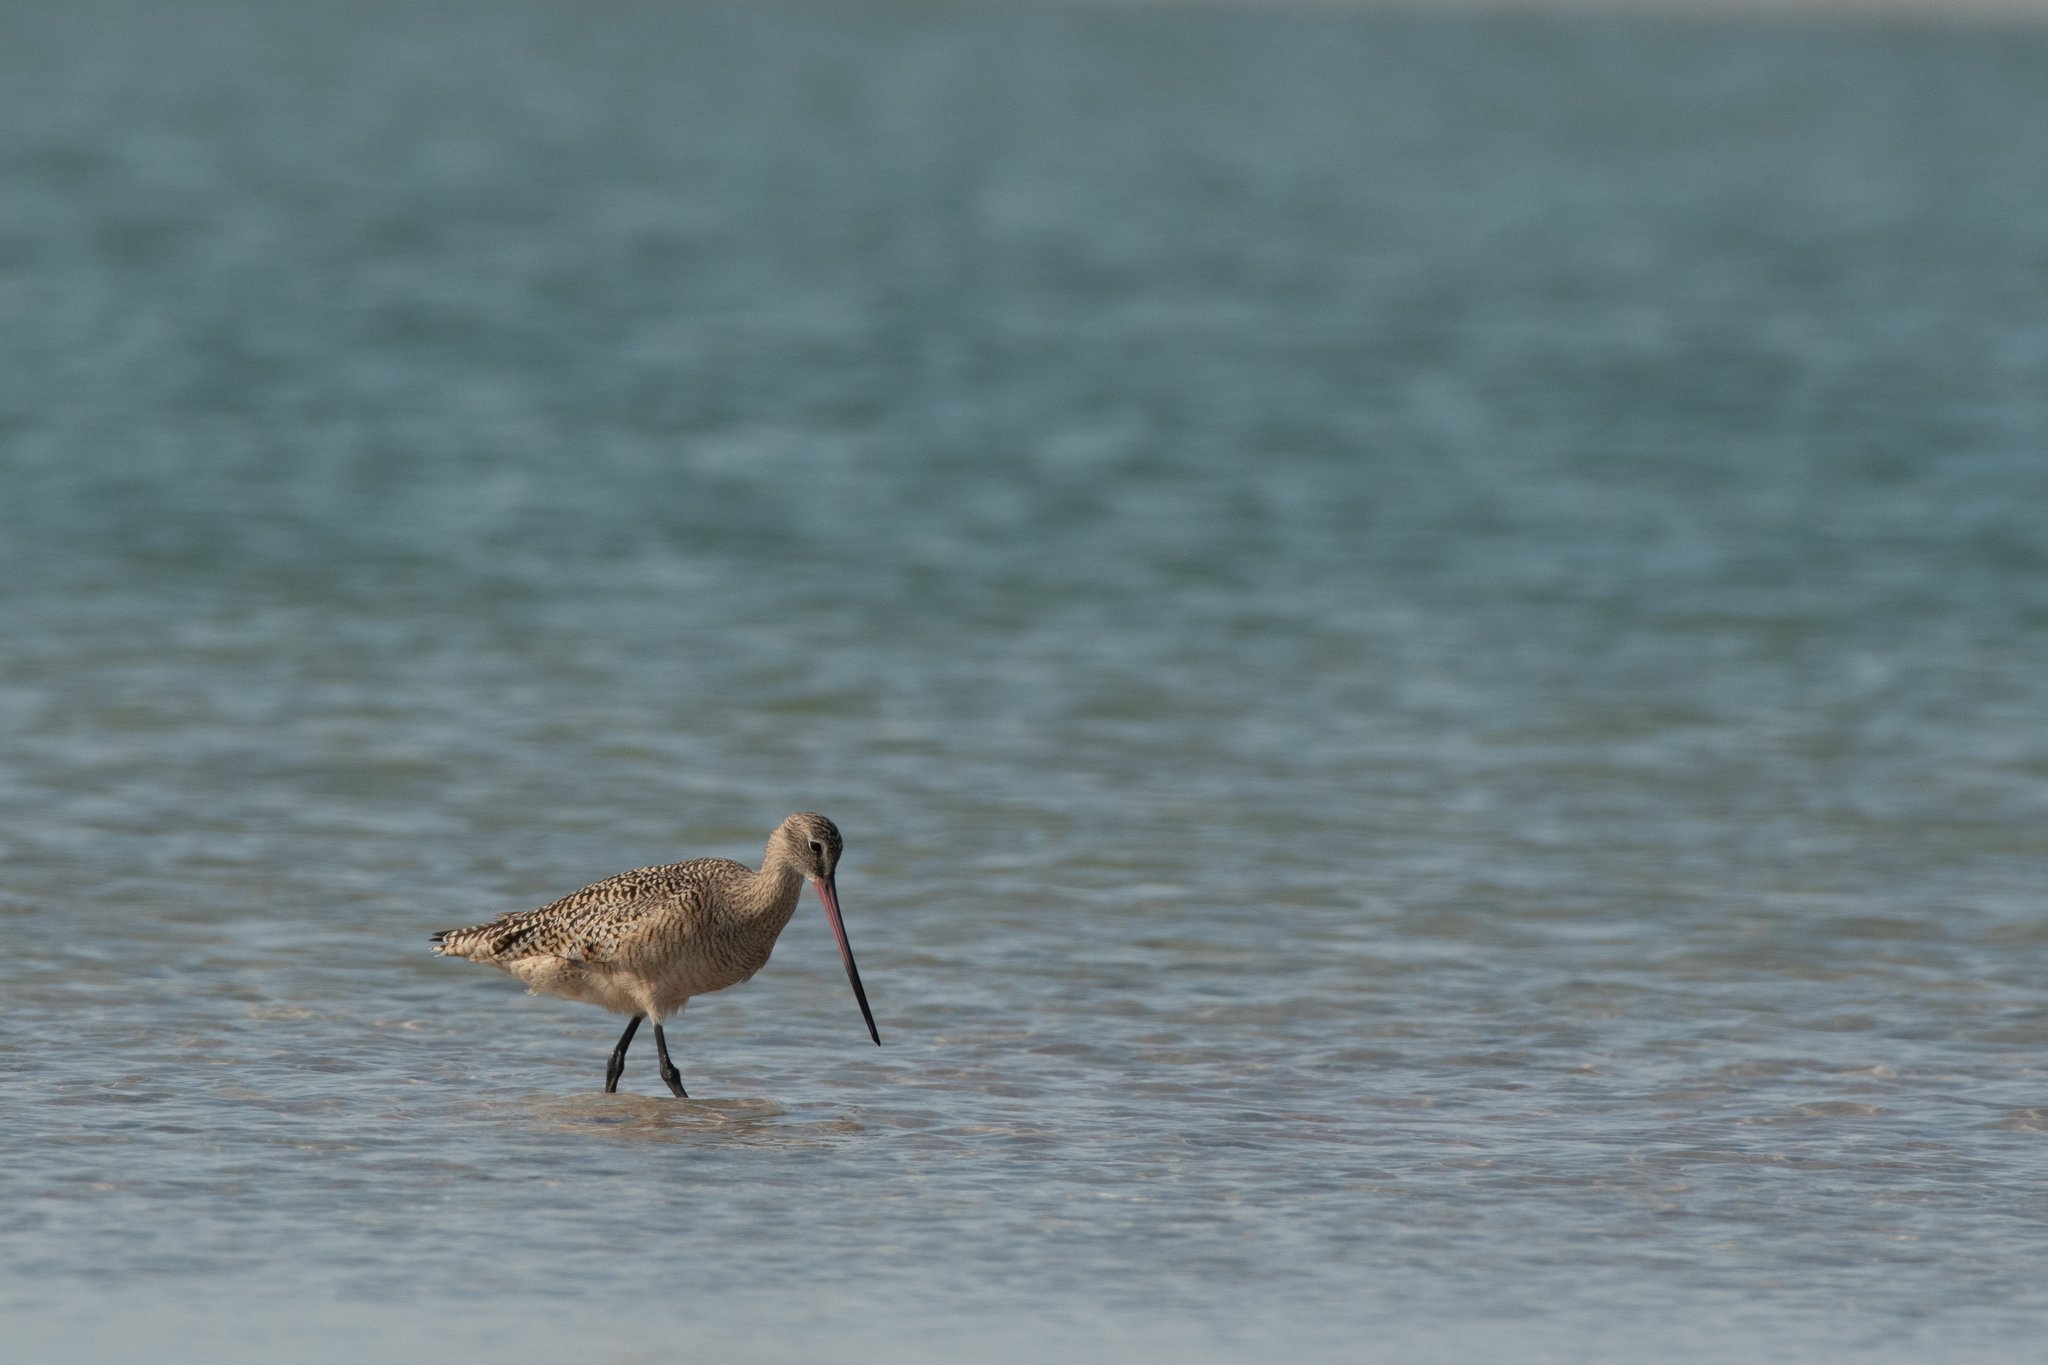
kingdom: Animalia
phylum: Chordata
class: Aves
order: Charadriiformes
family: Scolopacidae
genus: Limosa
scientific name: Limosa fedoa
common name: Marbled godwit
